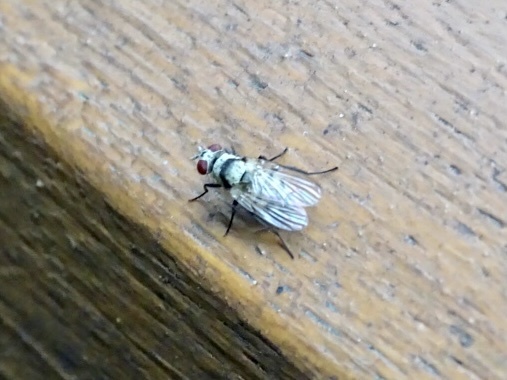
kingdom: Animalia
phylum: Arthropoda
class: Insecta
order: Diptera
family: Anthomyiidae
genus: Anthomyia
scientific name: Anthomyia illocata
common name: Fly
